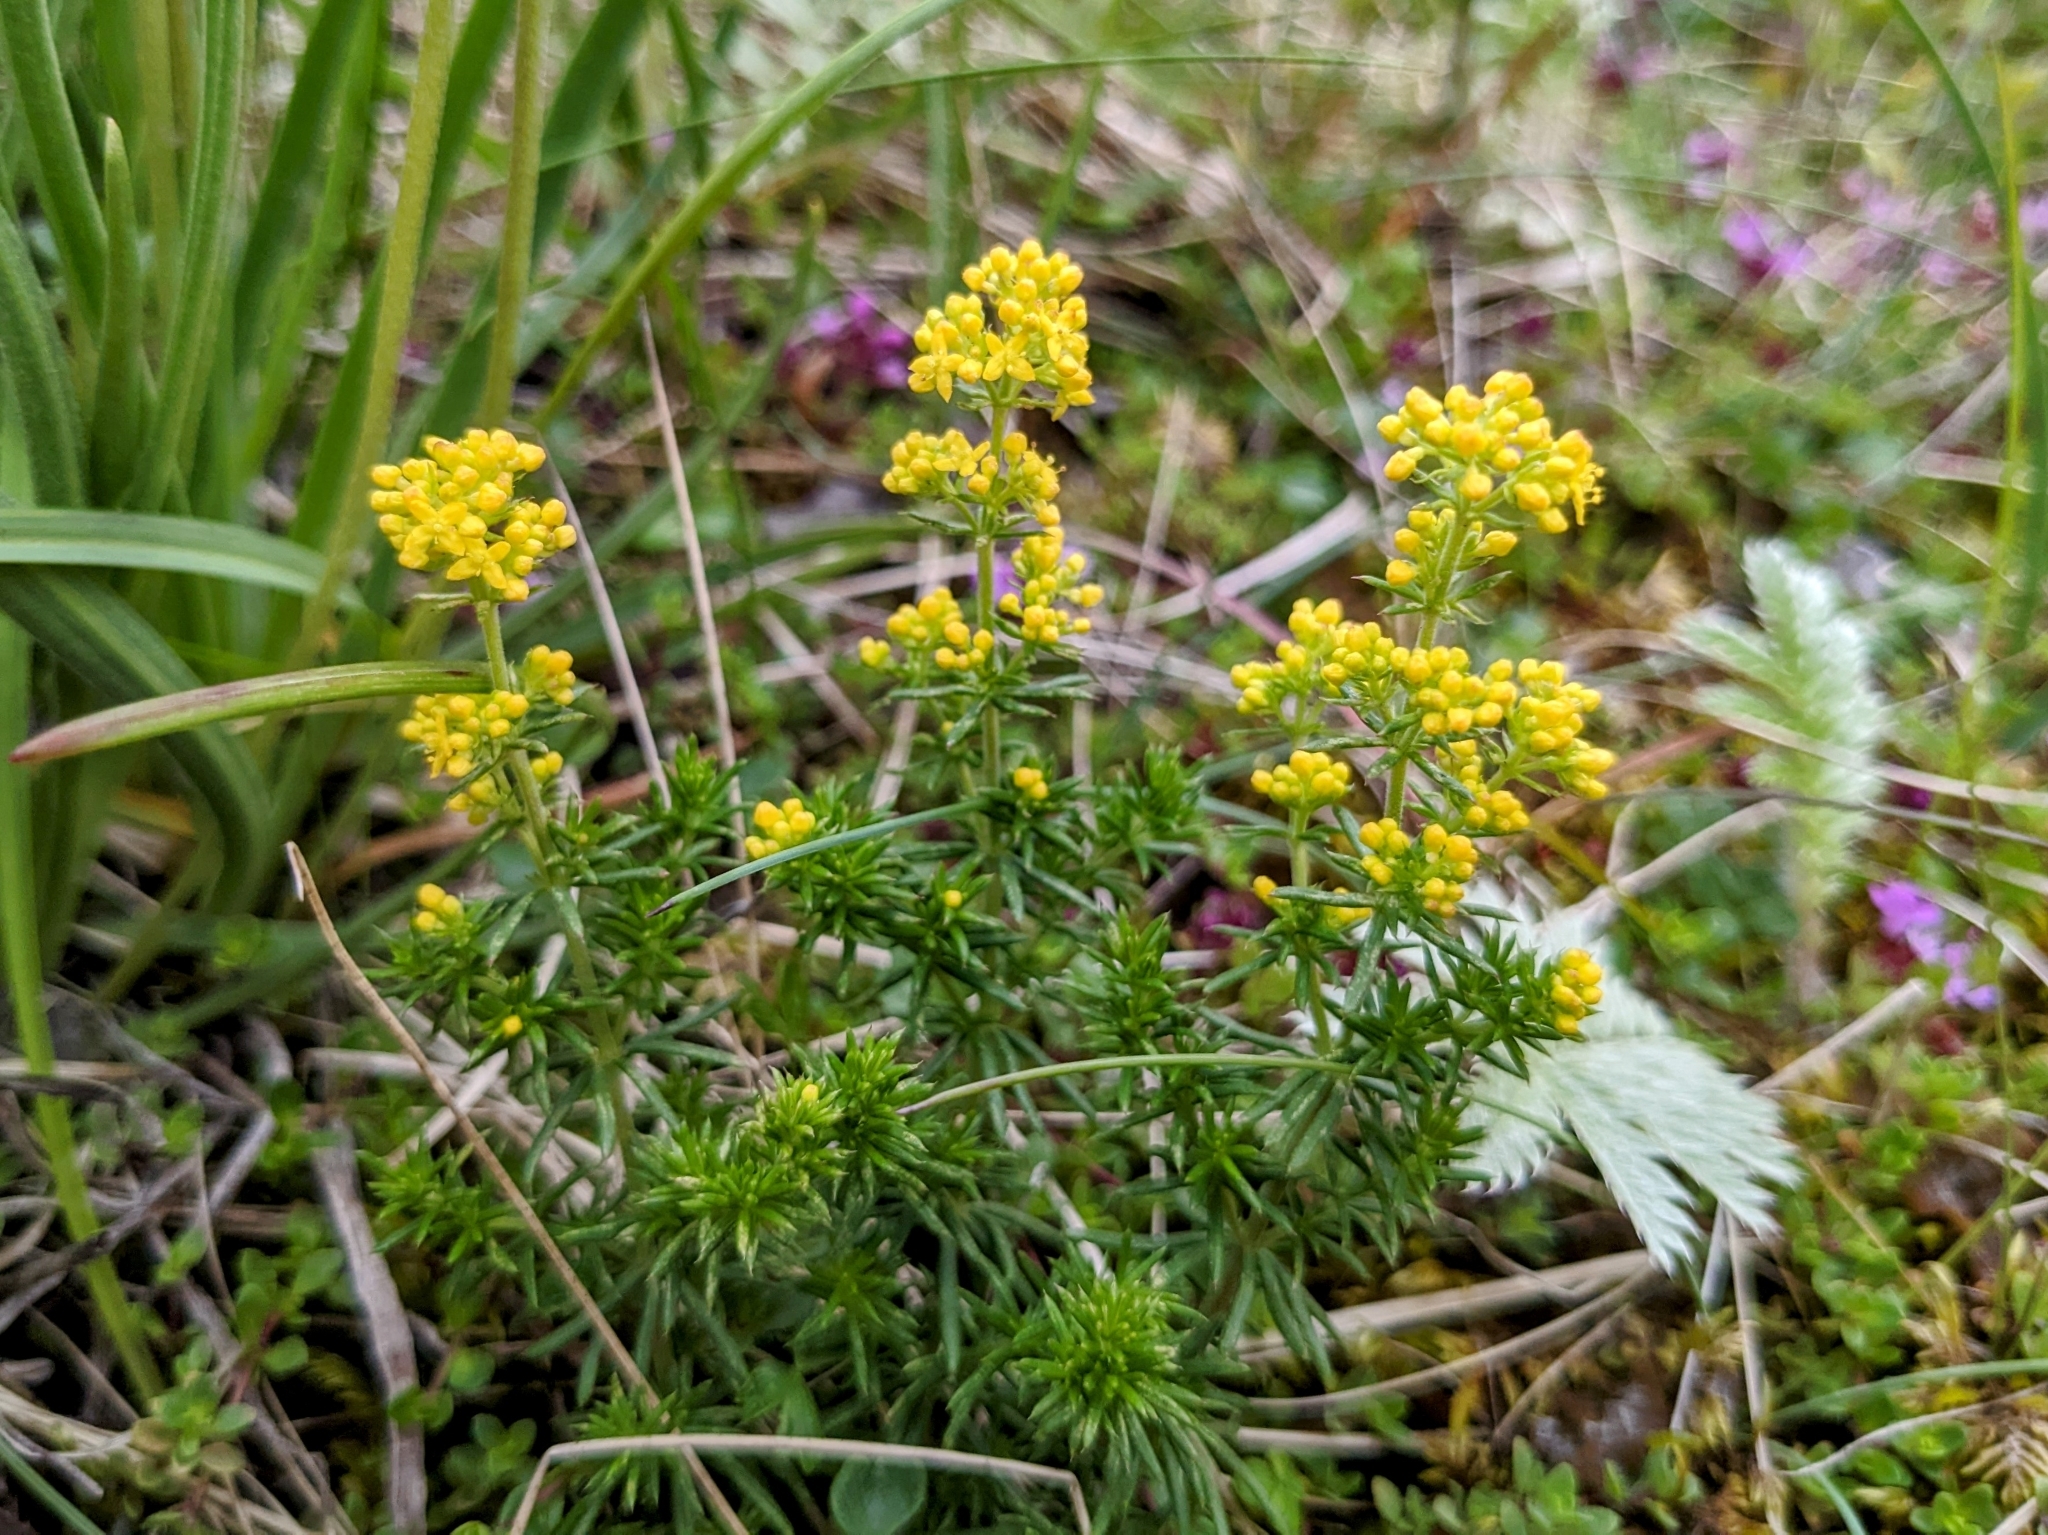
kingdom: Plantae
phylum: Tracheophyta
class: Magnoliopsida
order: Gentianales
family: Rubiaceae
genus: Galium
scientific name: Galium verum
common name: Lady's bedstraw
